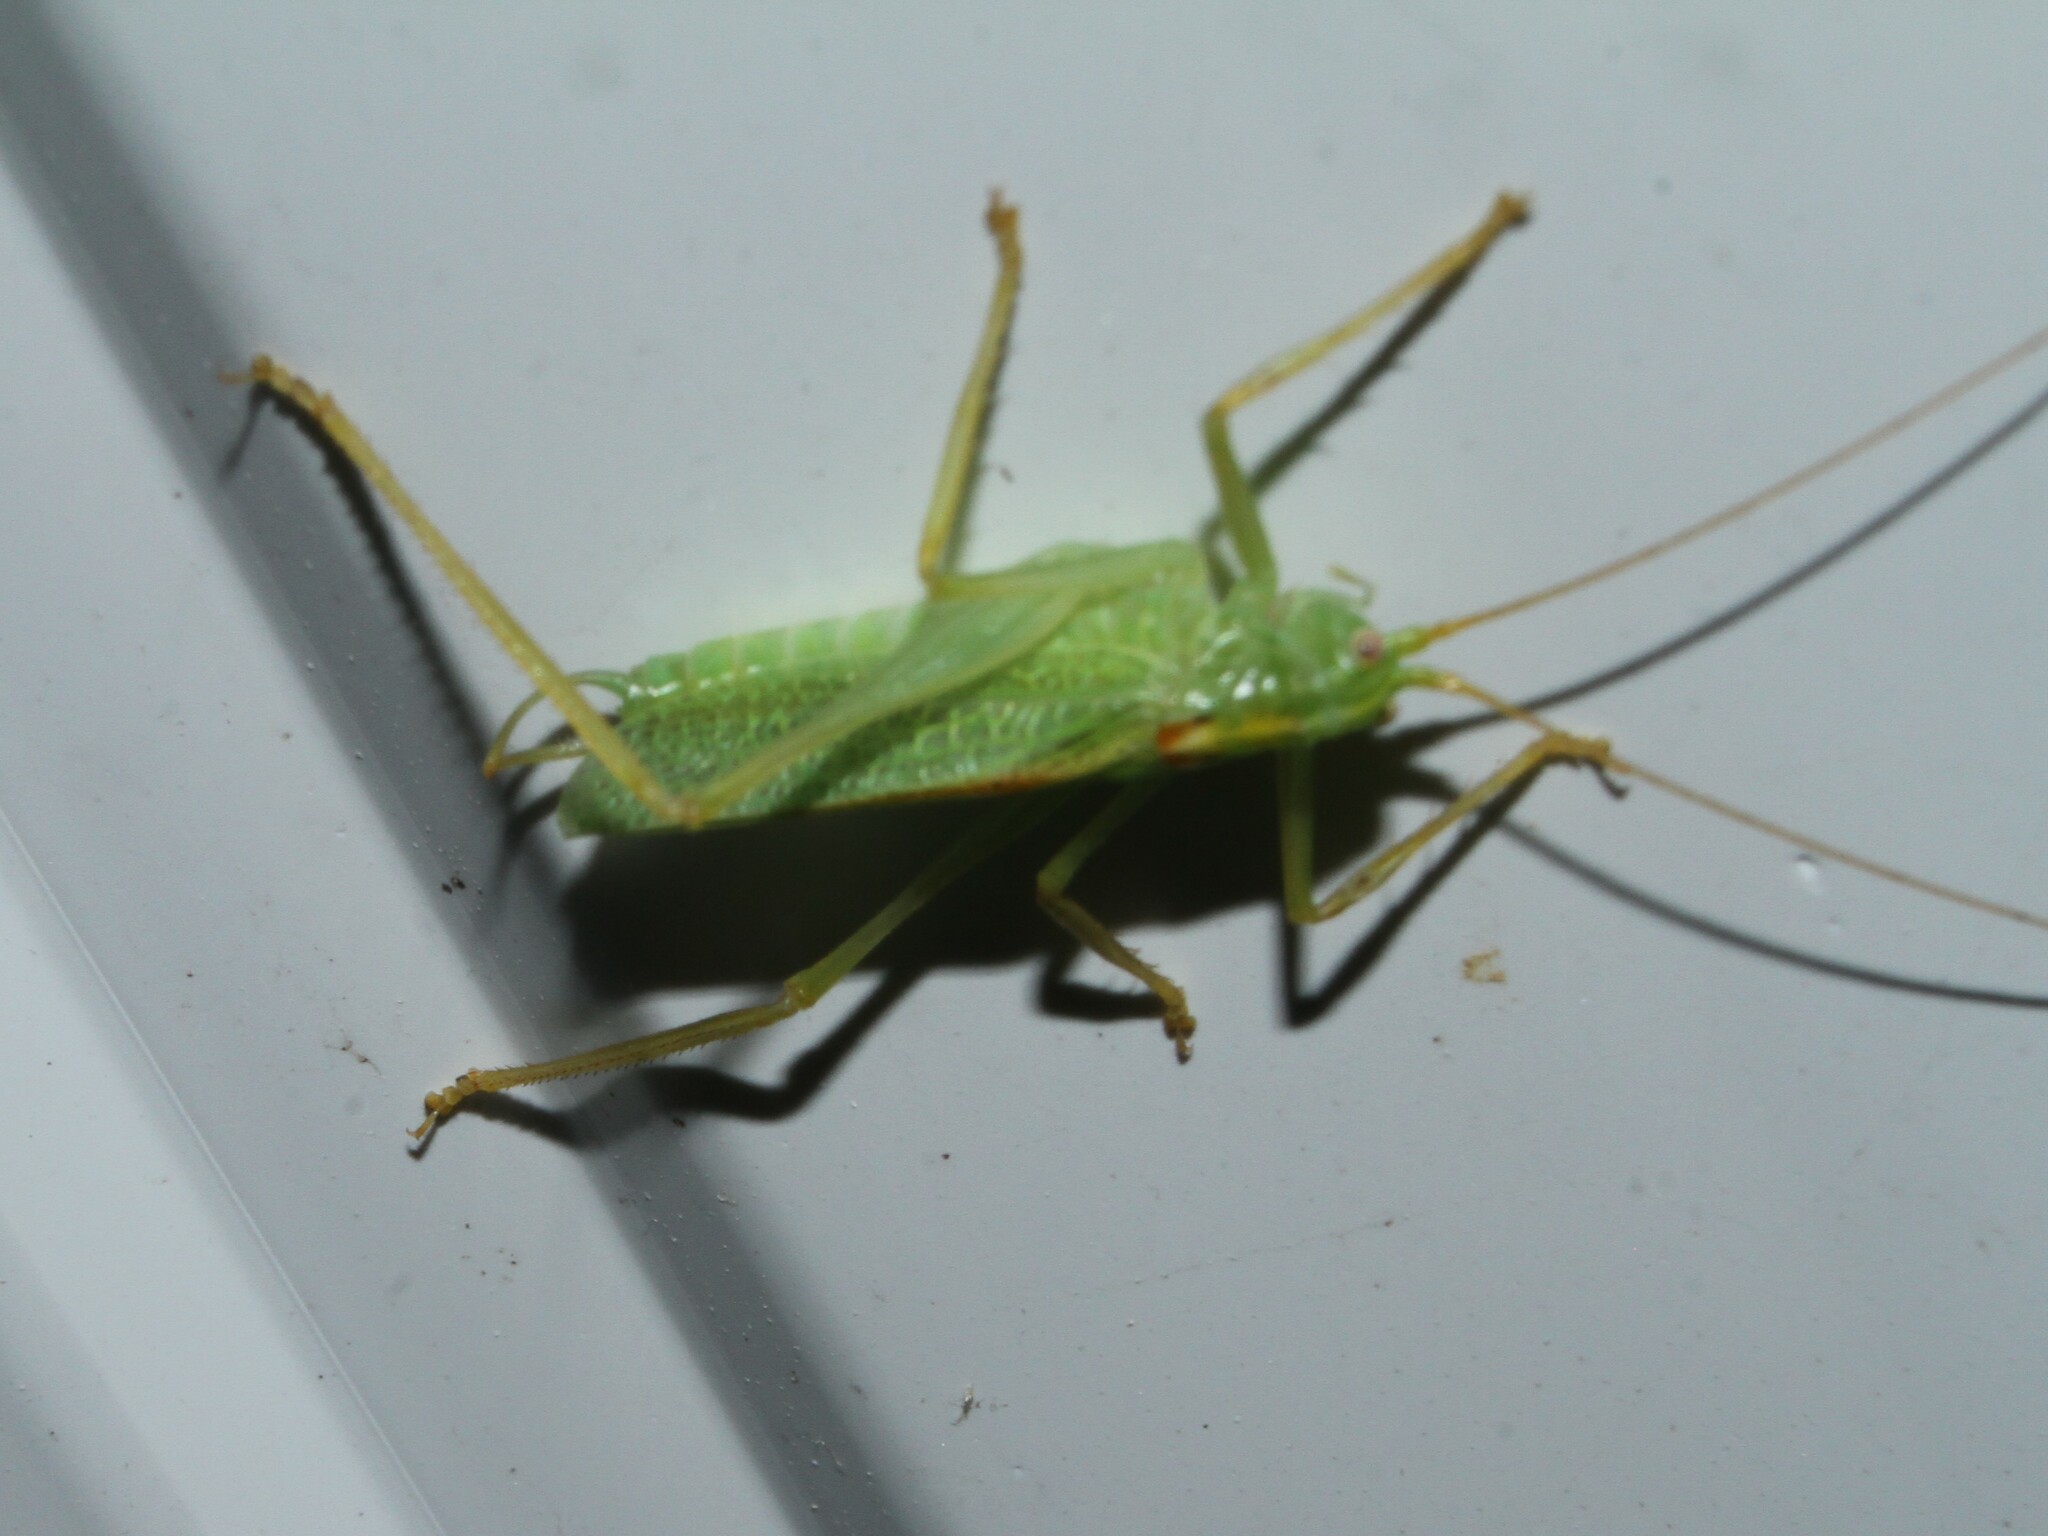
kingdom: Animalia
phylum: Arthropoda
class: Insecta
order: Orthoptera
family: Tettigoniidae
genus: Meconema
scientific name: Meconema thalassinum
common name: Oak bush-cricket
